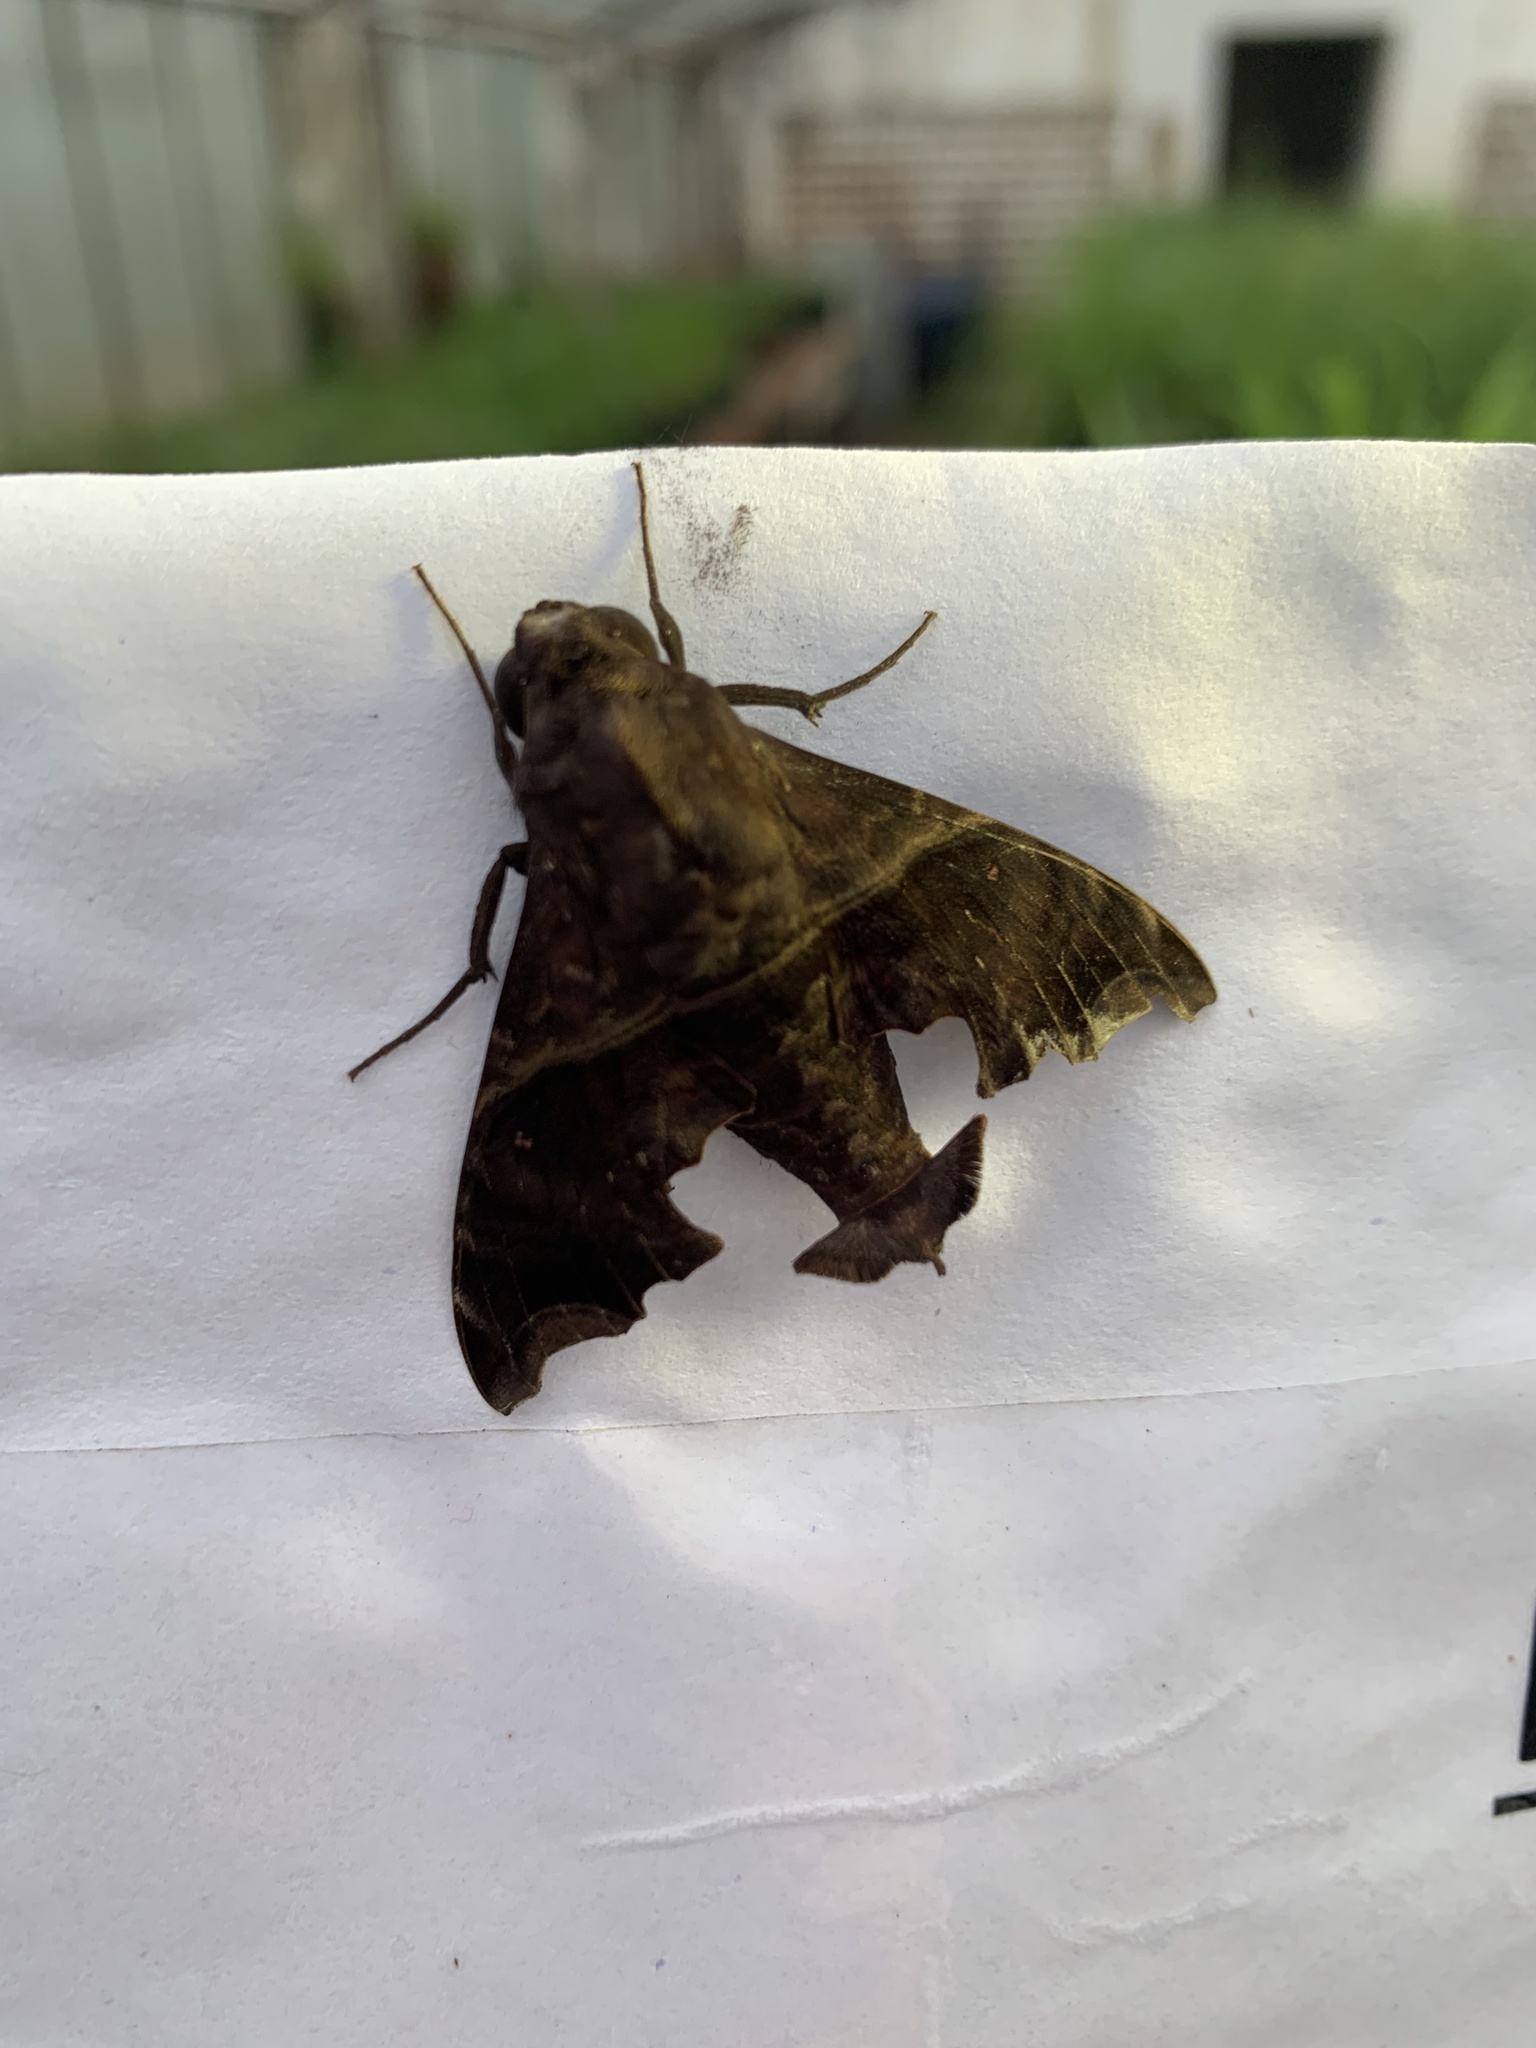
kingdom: Animalia
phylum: Arthropoda
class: Insecta
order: Lepidoptera
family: Sphingidae
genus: Enyo
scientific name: Enyo ocypete
